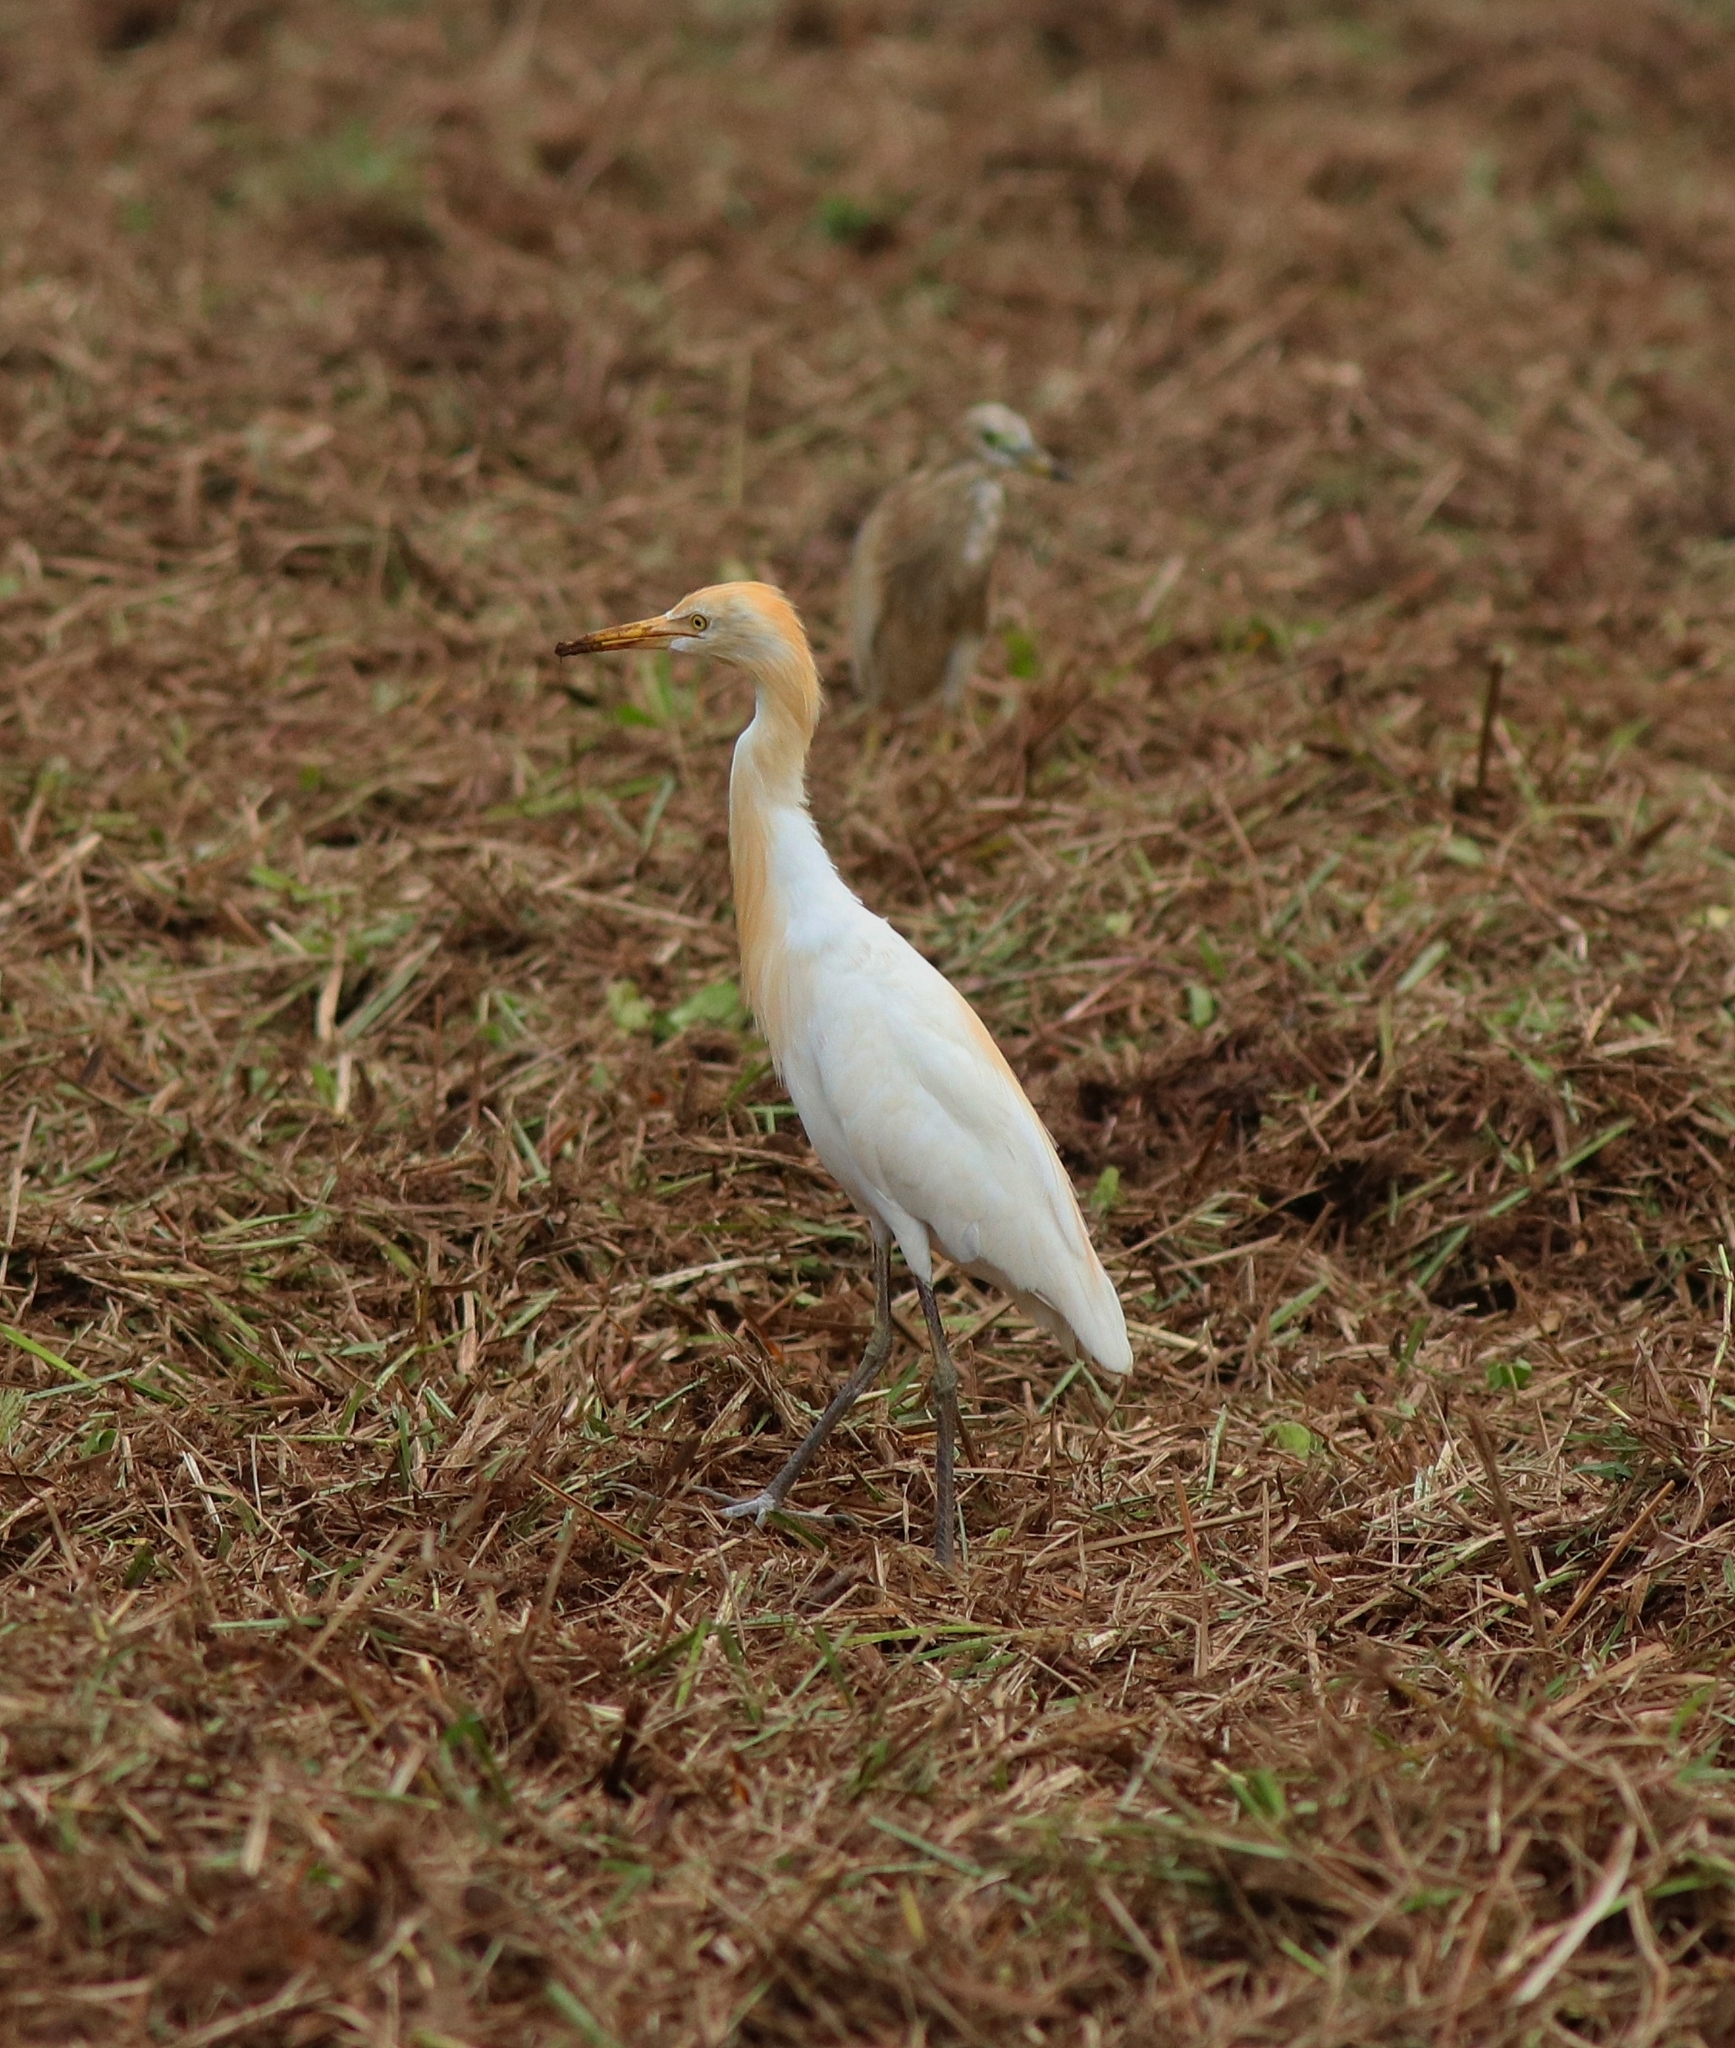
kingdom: Animalia
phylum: Chordata
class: Aves
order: Pelecaniformes
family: Ardeidae
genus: Bubulcus
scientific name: Bubulcus coromandus
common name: Eastern cattle egret
